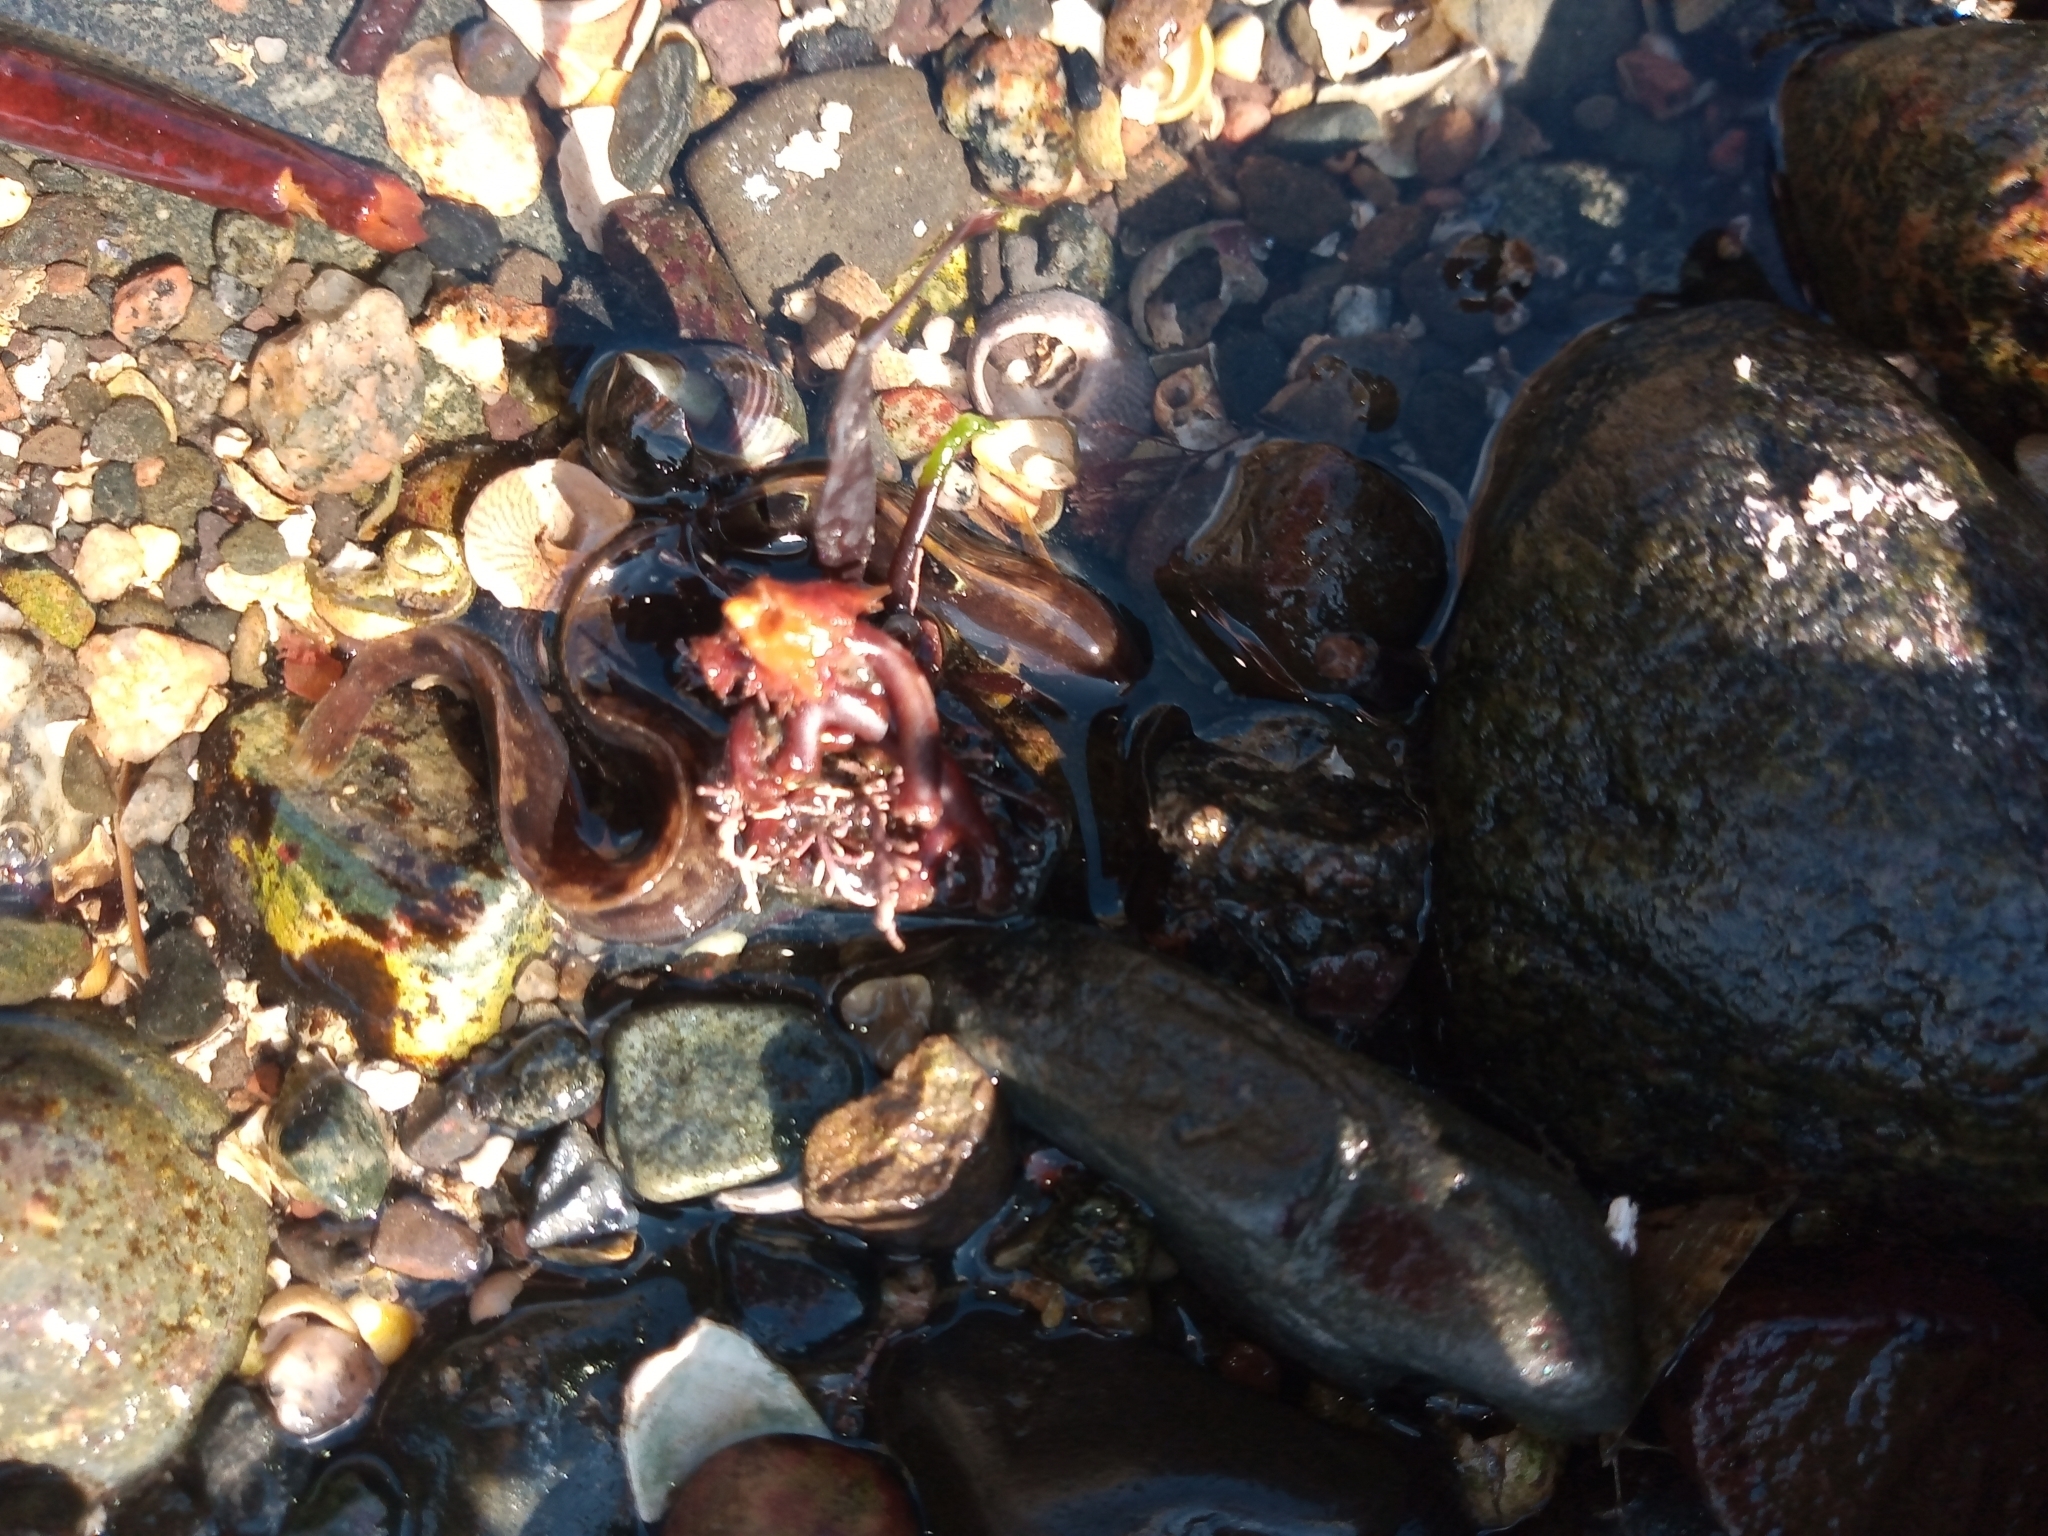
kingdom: Animalia
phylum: Chordata
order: Perciformes
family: Pholidae
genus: Pholis
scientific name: Pholis gunnellus
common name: Butterfish
